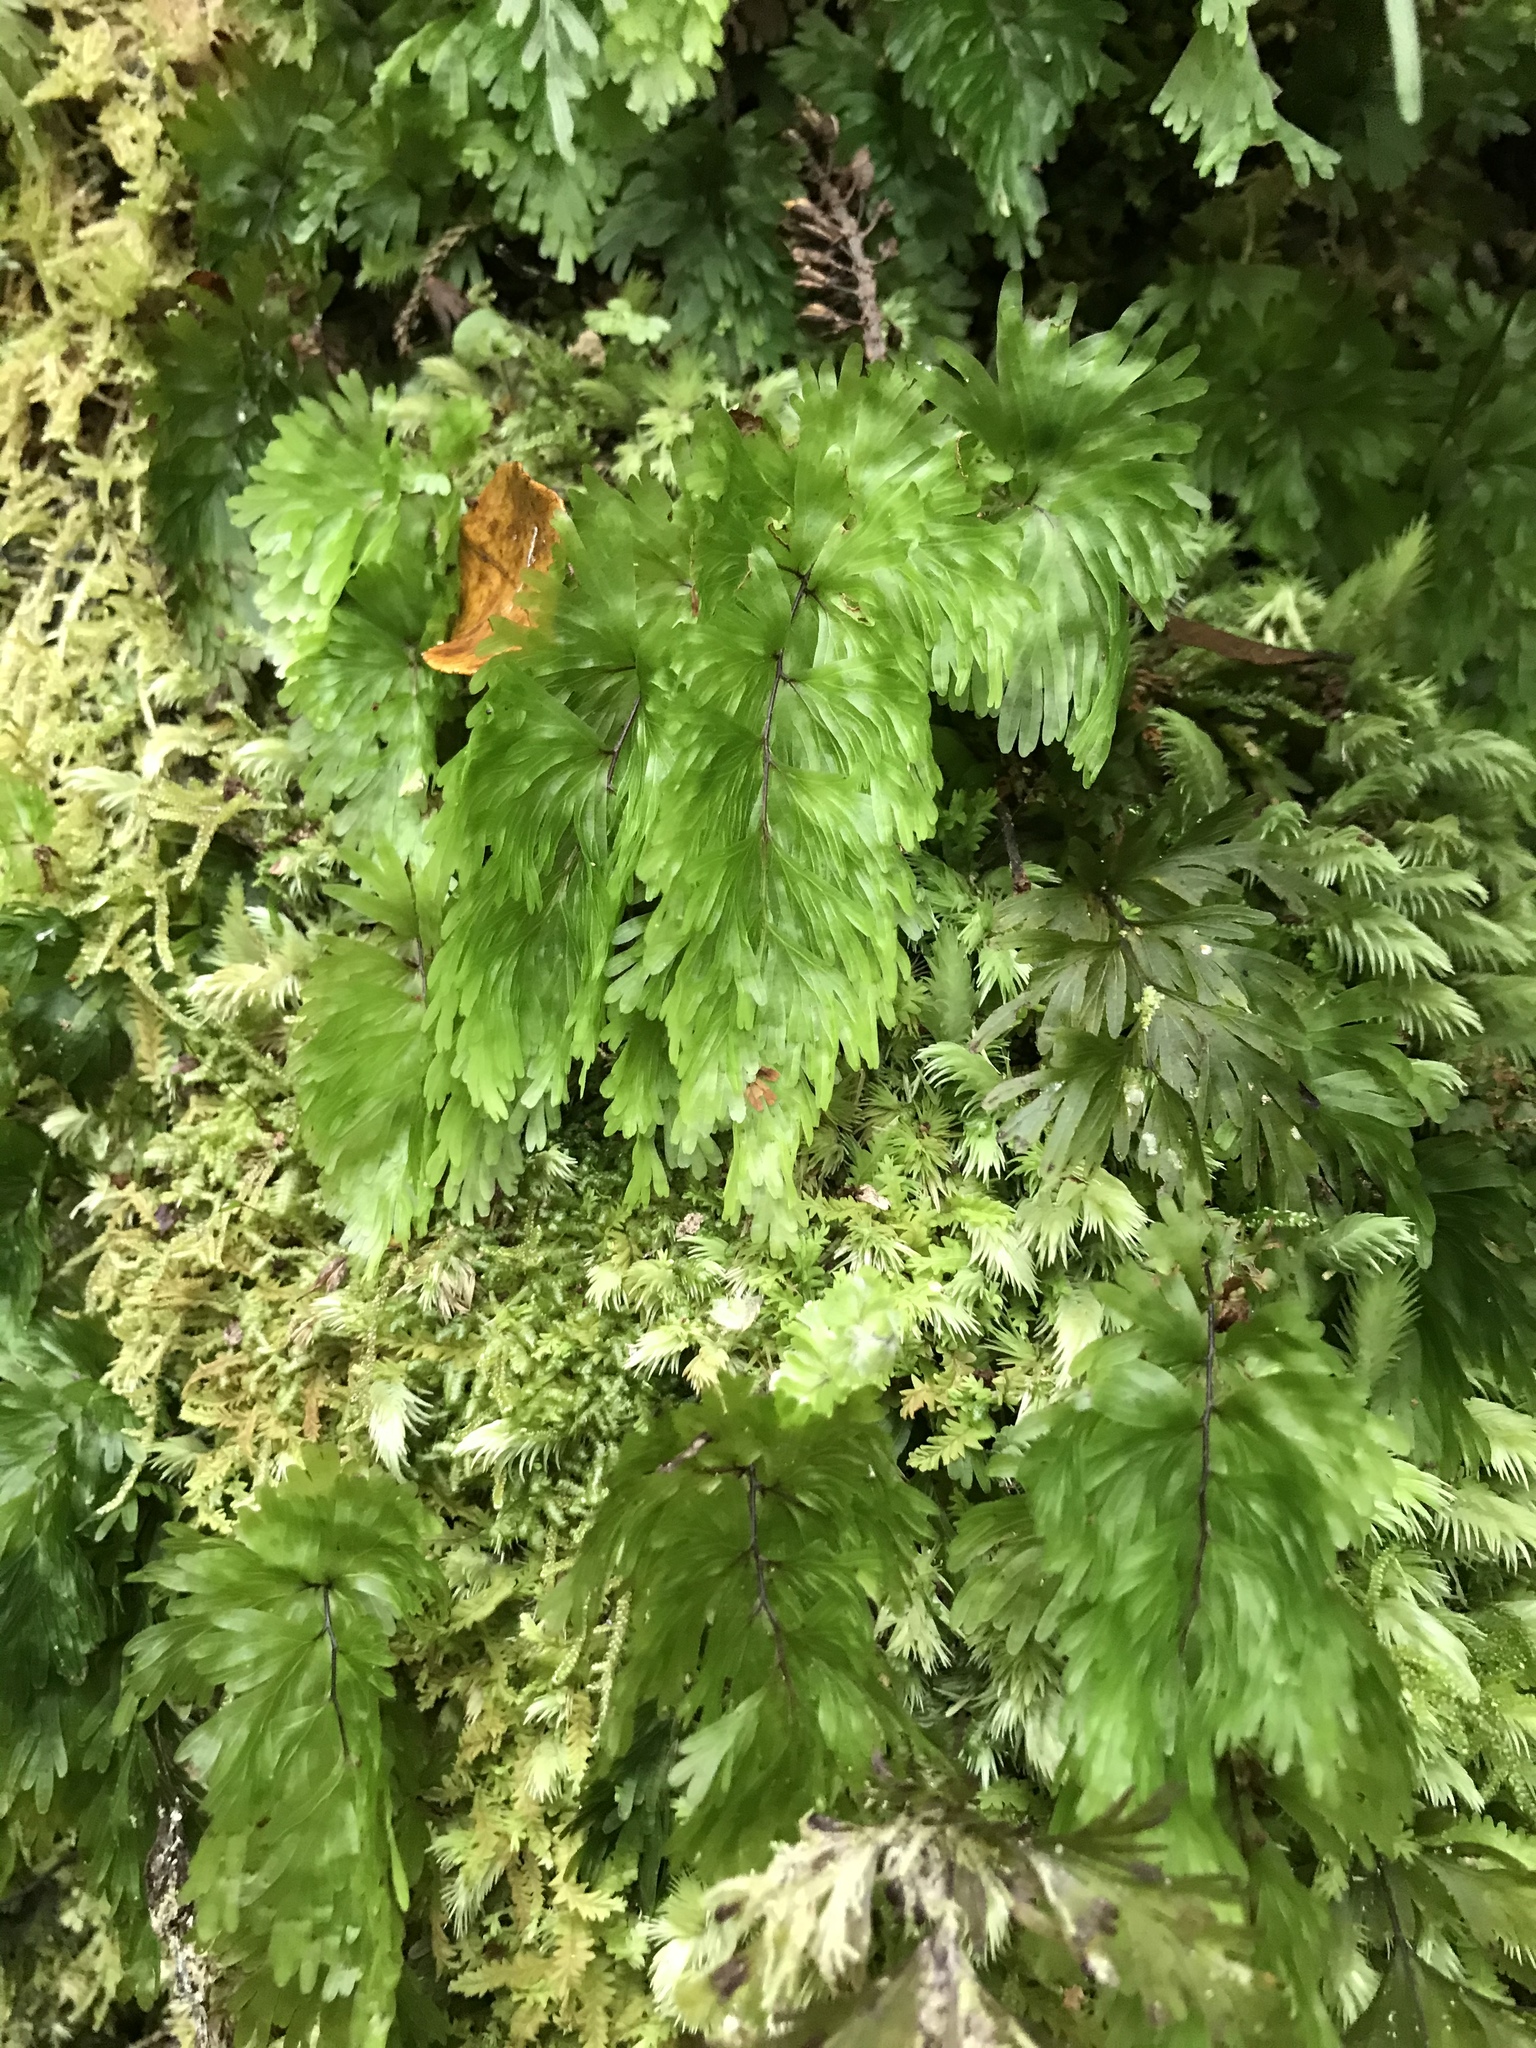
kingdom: Plantae
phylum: Tracheophyta
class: Polypodiopsida
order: Hymenophyllales
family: Hymenophyllaceae
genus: Hymenophyllum
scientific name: Hymenophyllum flabellatum
